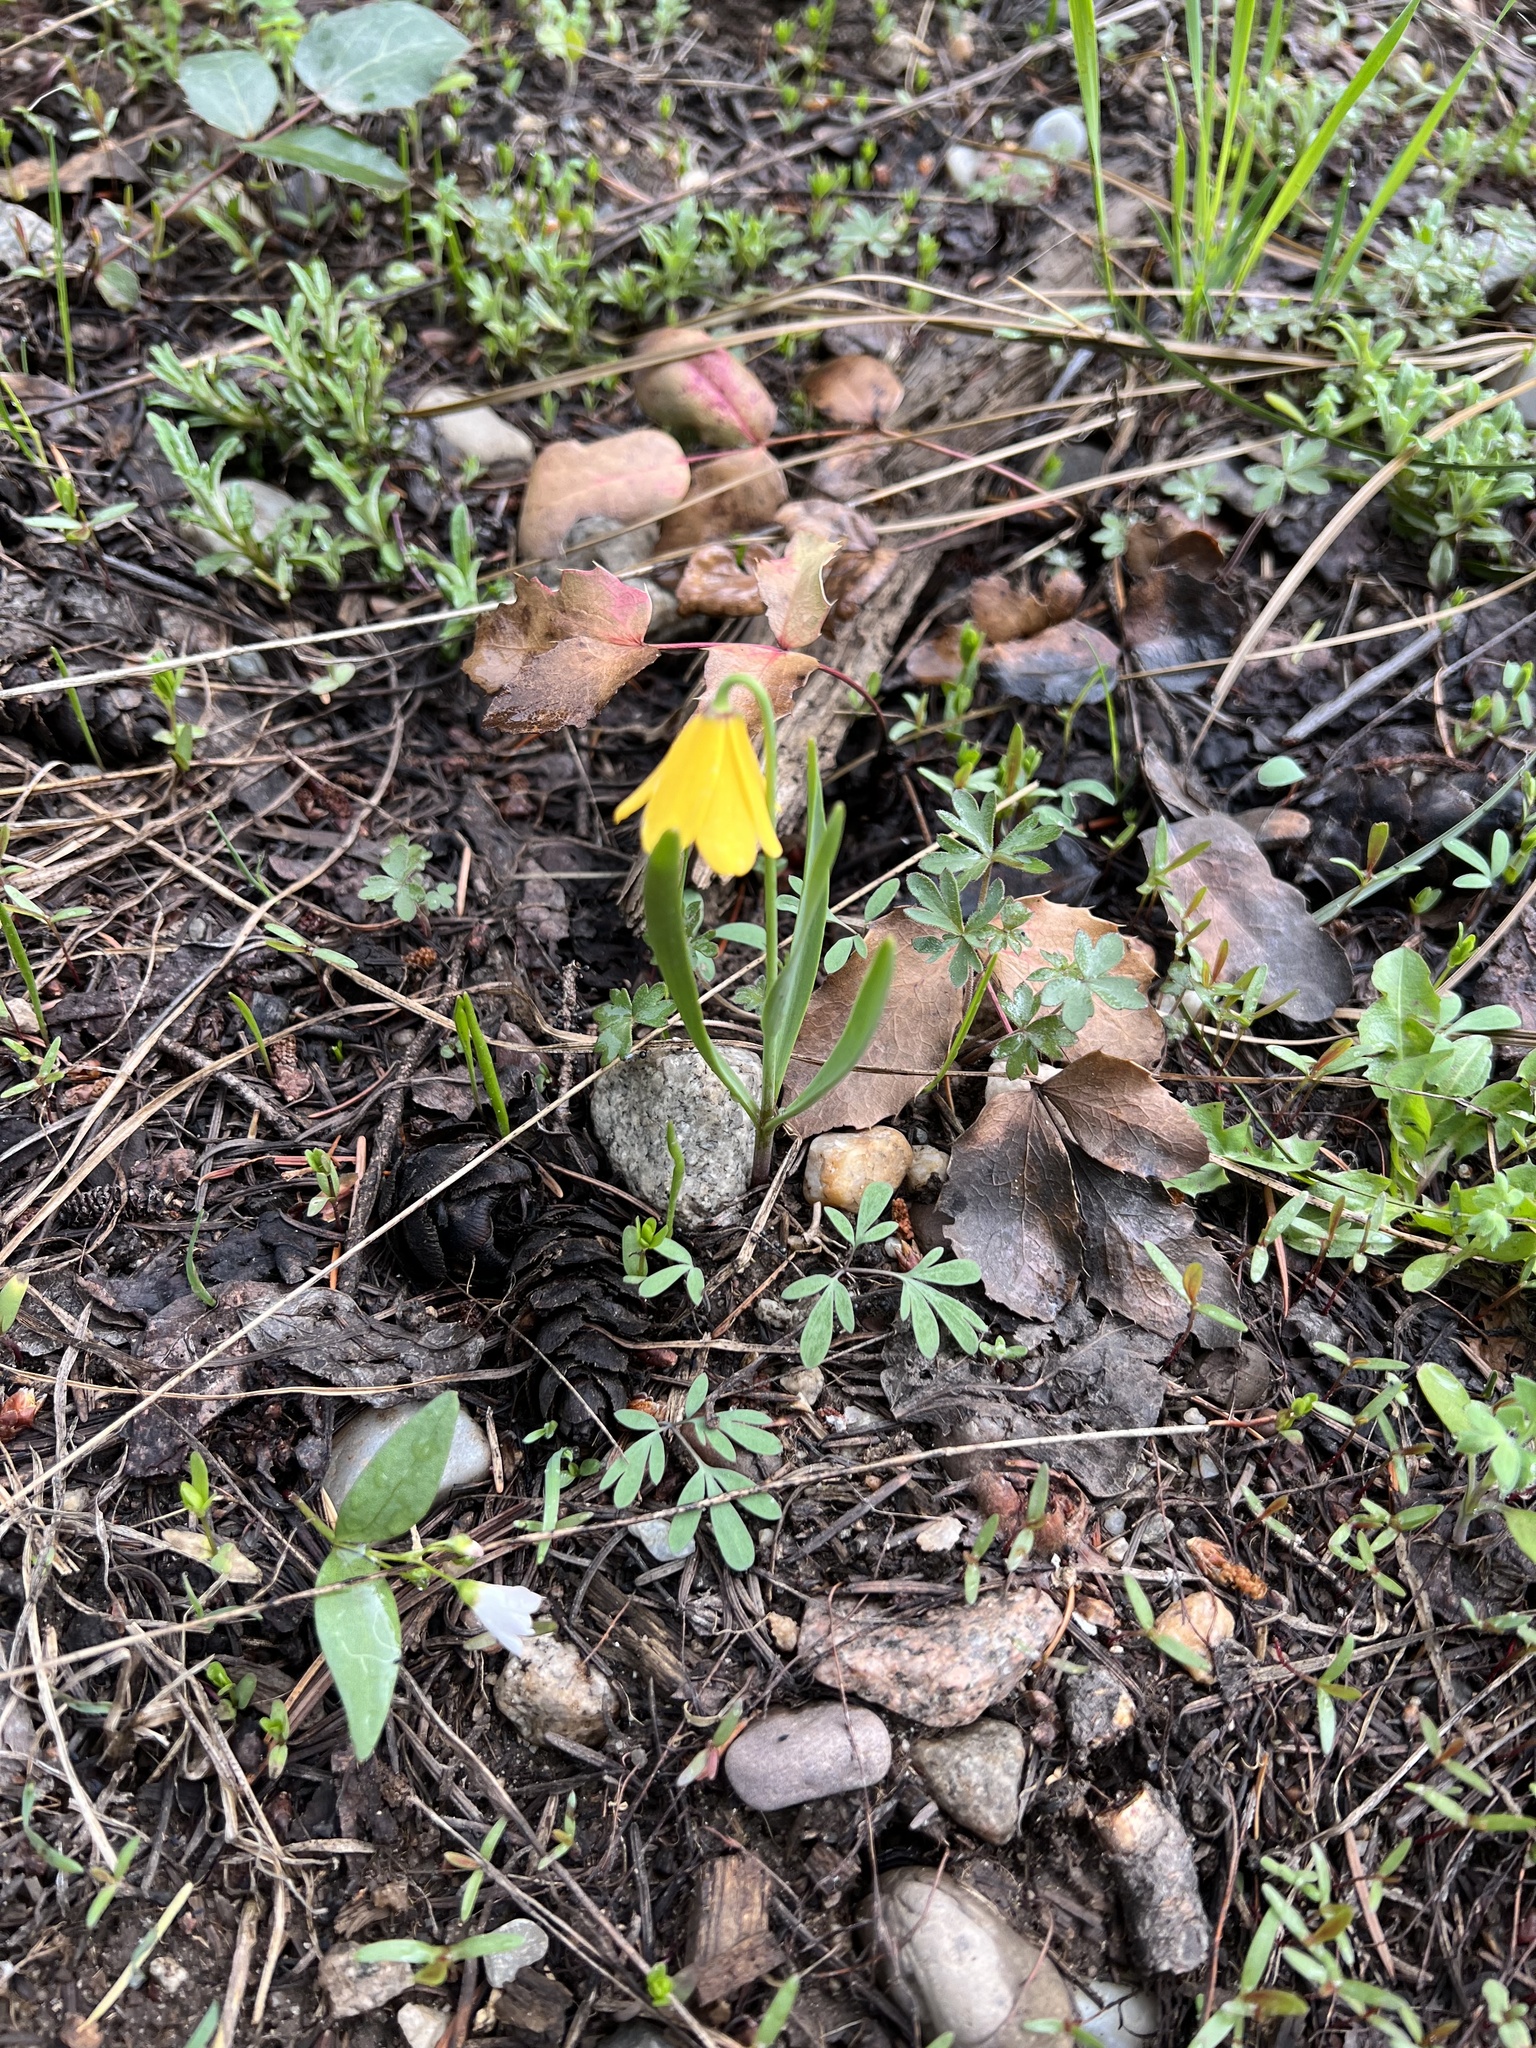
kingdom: Plantae
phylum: Tracheophyta
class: Liliopsida
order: Liliales
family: Liliaceae
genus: Fritillaria
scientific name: Fritillaria pudica
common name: Yellow fritillary
